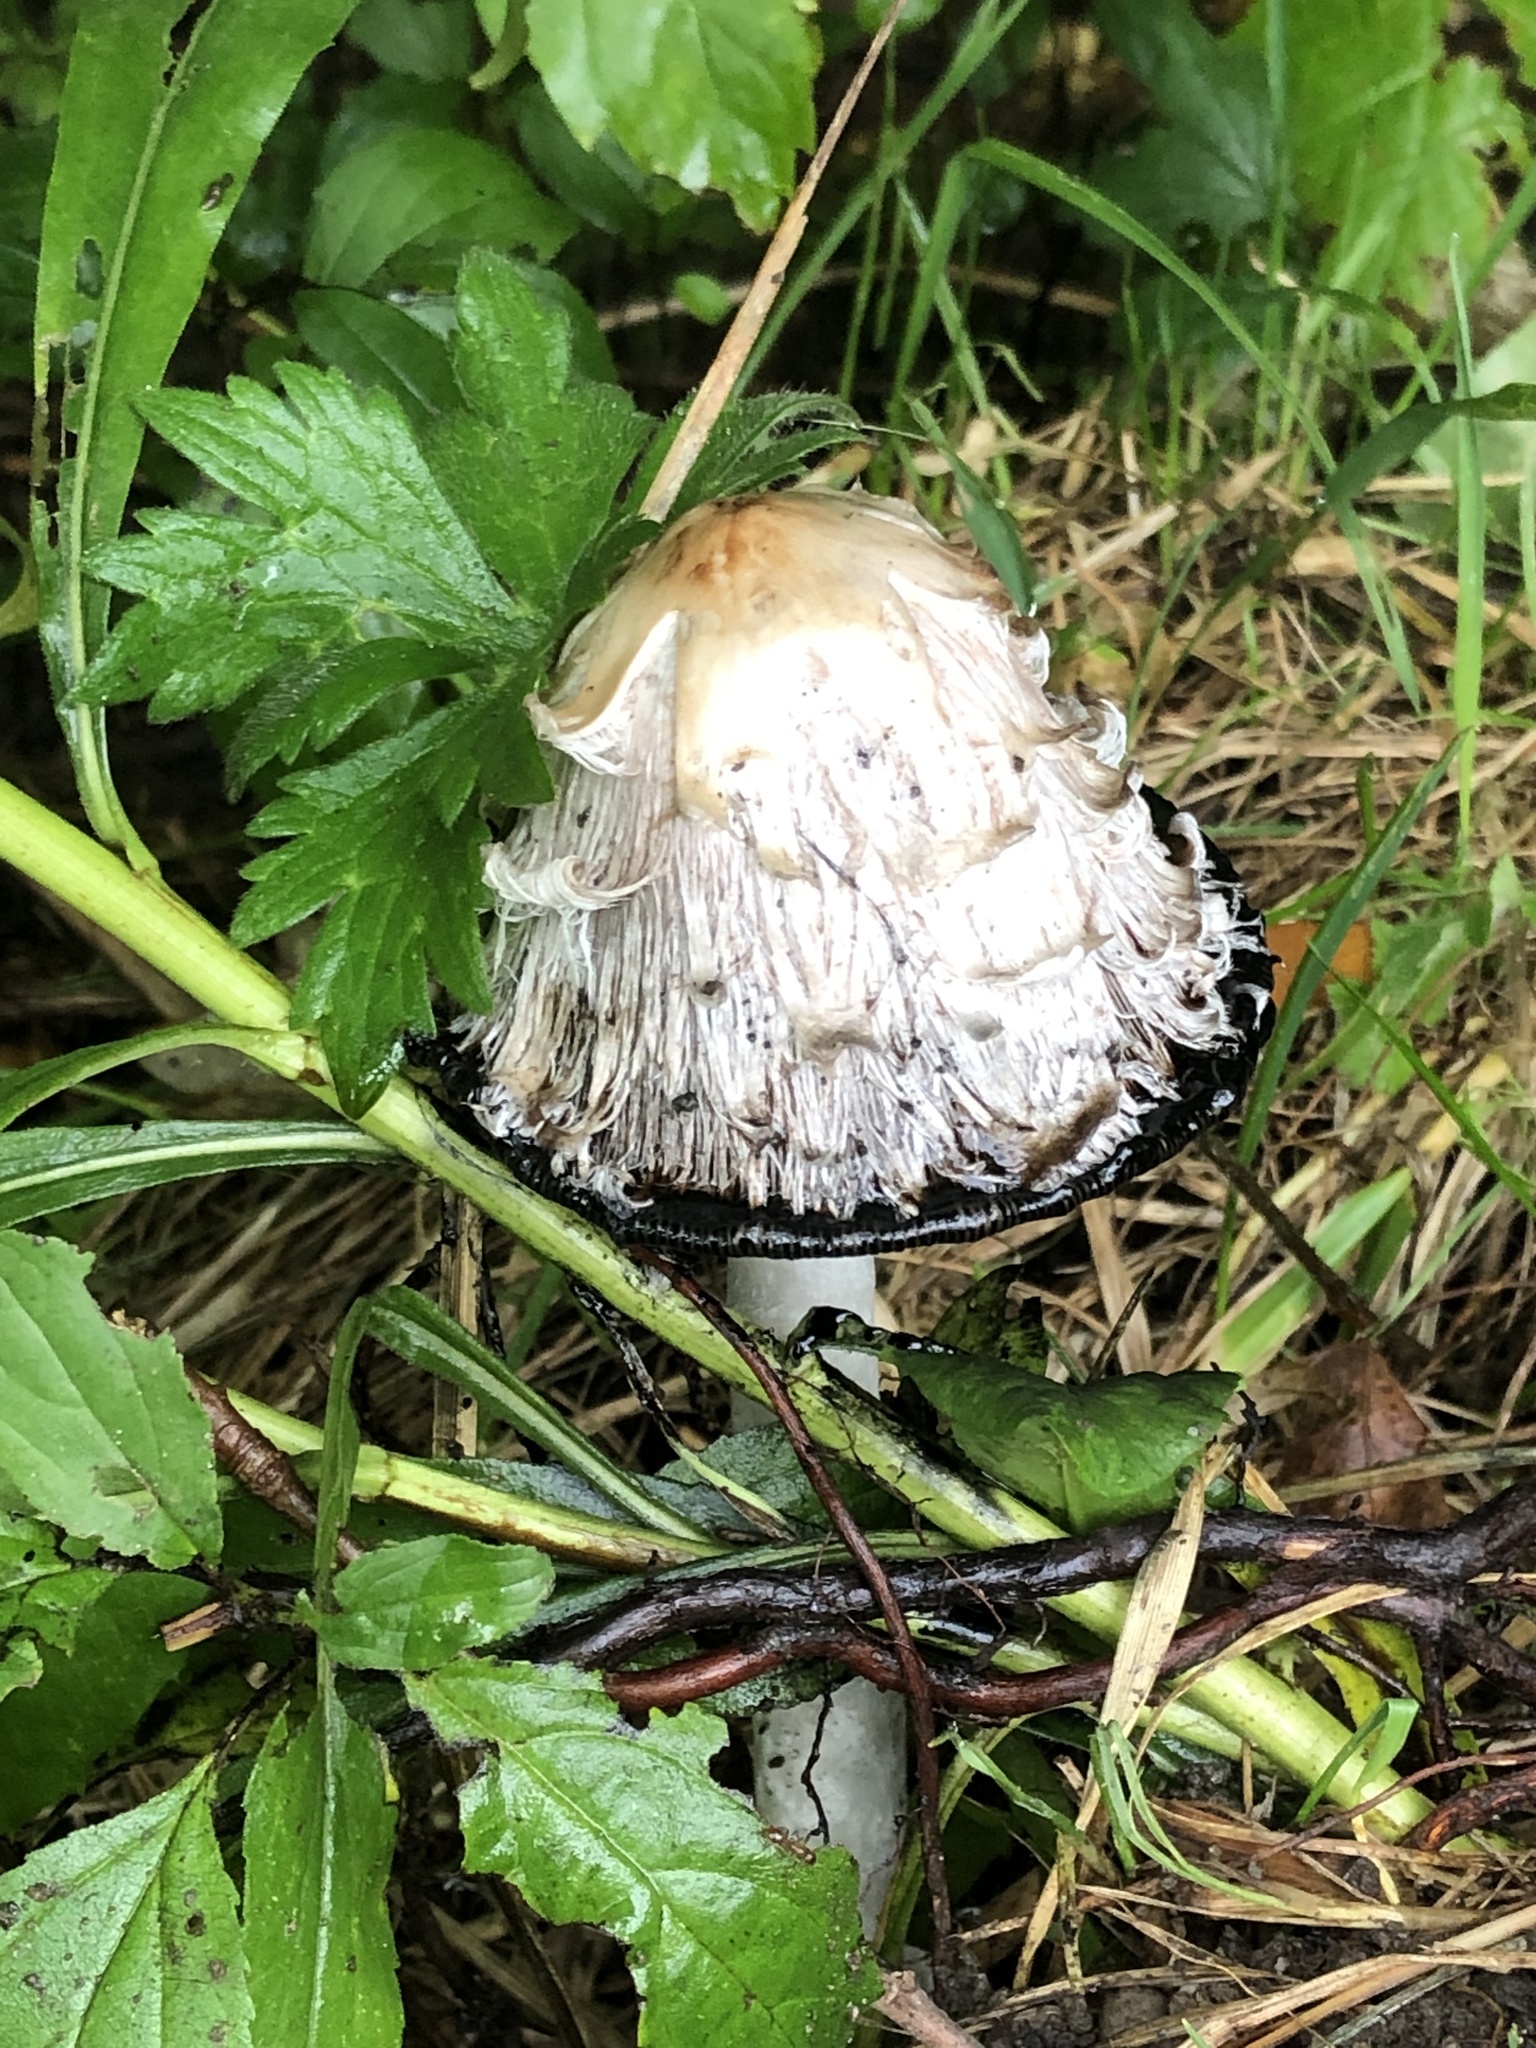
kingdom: Fungi
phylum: Basidiomycota
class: Agaricomycetes
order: Agaricales
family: Agaricaceae
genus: Coprinus
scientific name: Coprinus comatus
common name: Lawyer's wig
